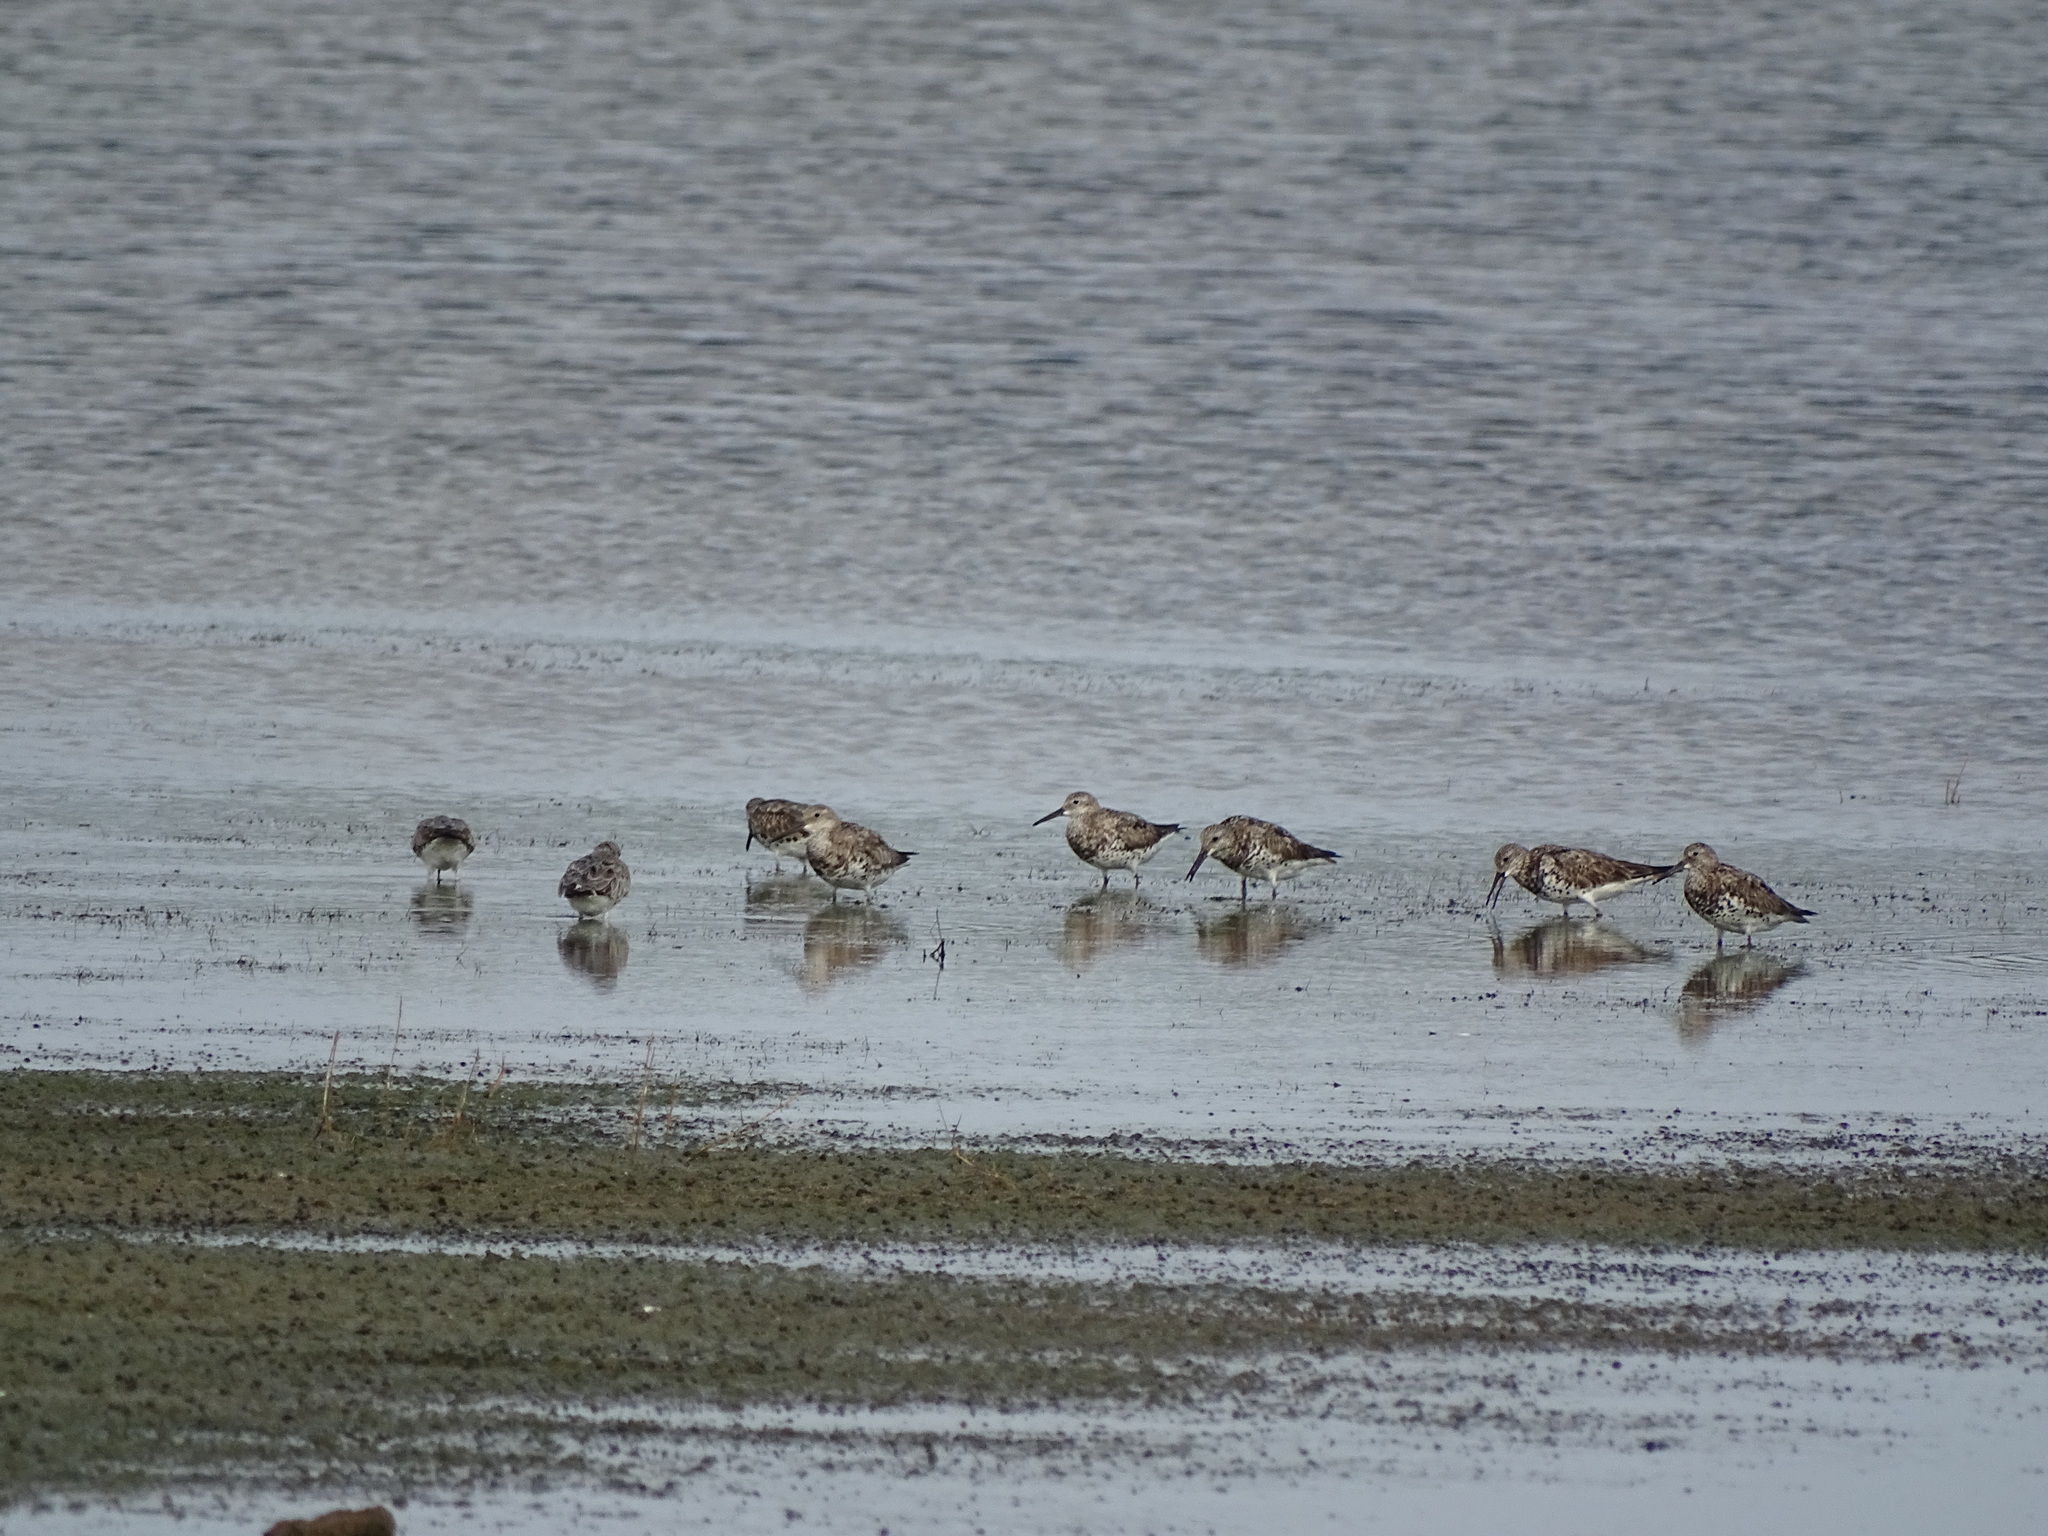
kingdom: Animalia
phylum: Chordata
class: Aves
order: Charadriiformes
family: Scolopacidae
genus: Calidris
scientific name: Calidris tenuirostris
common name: Great knot
